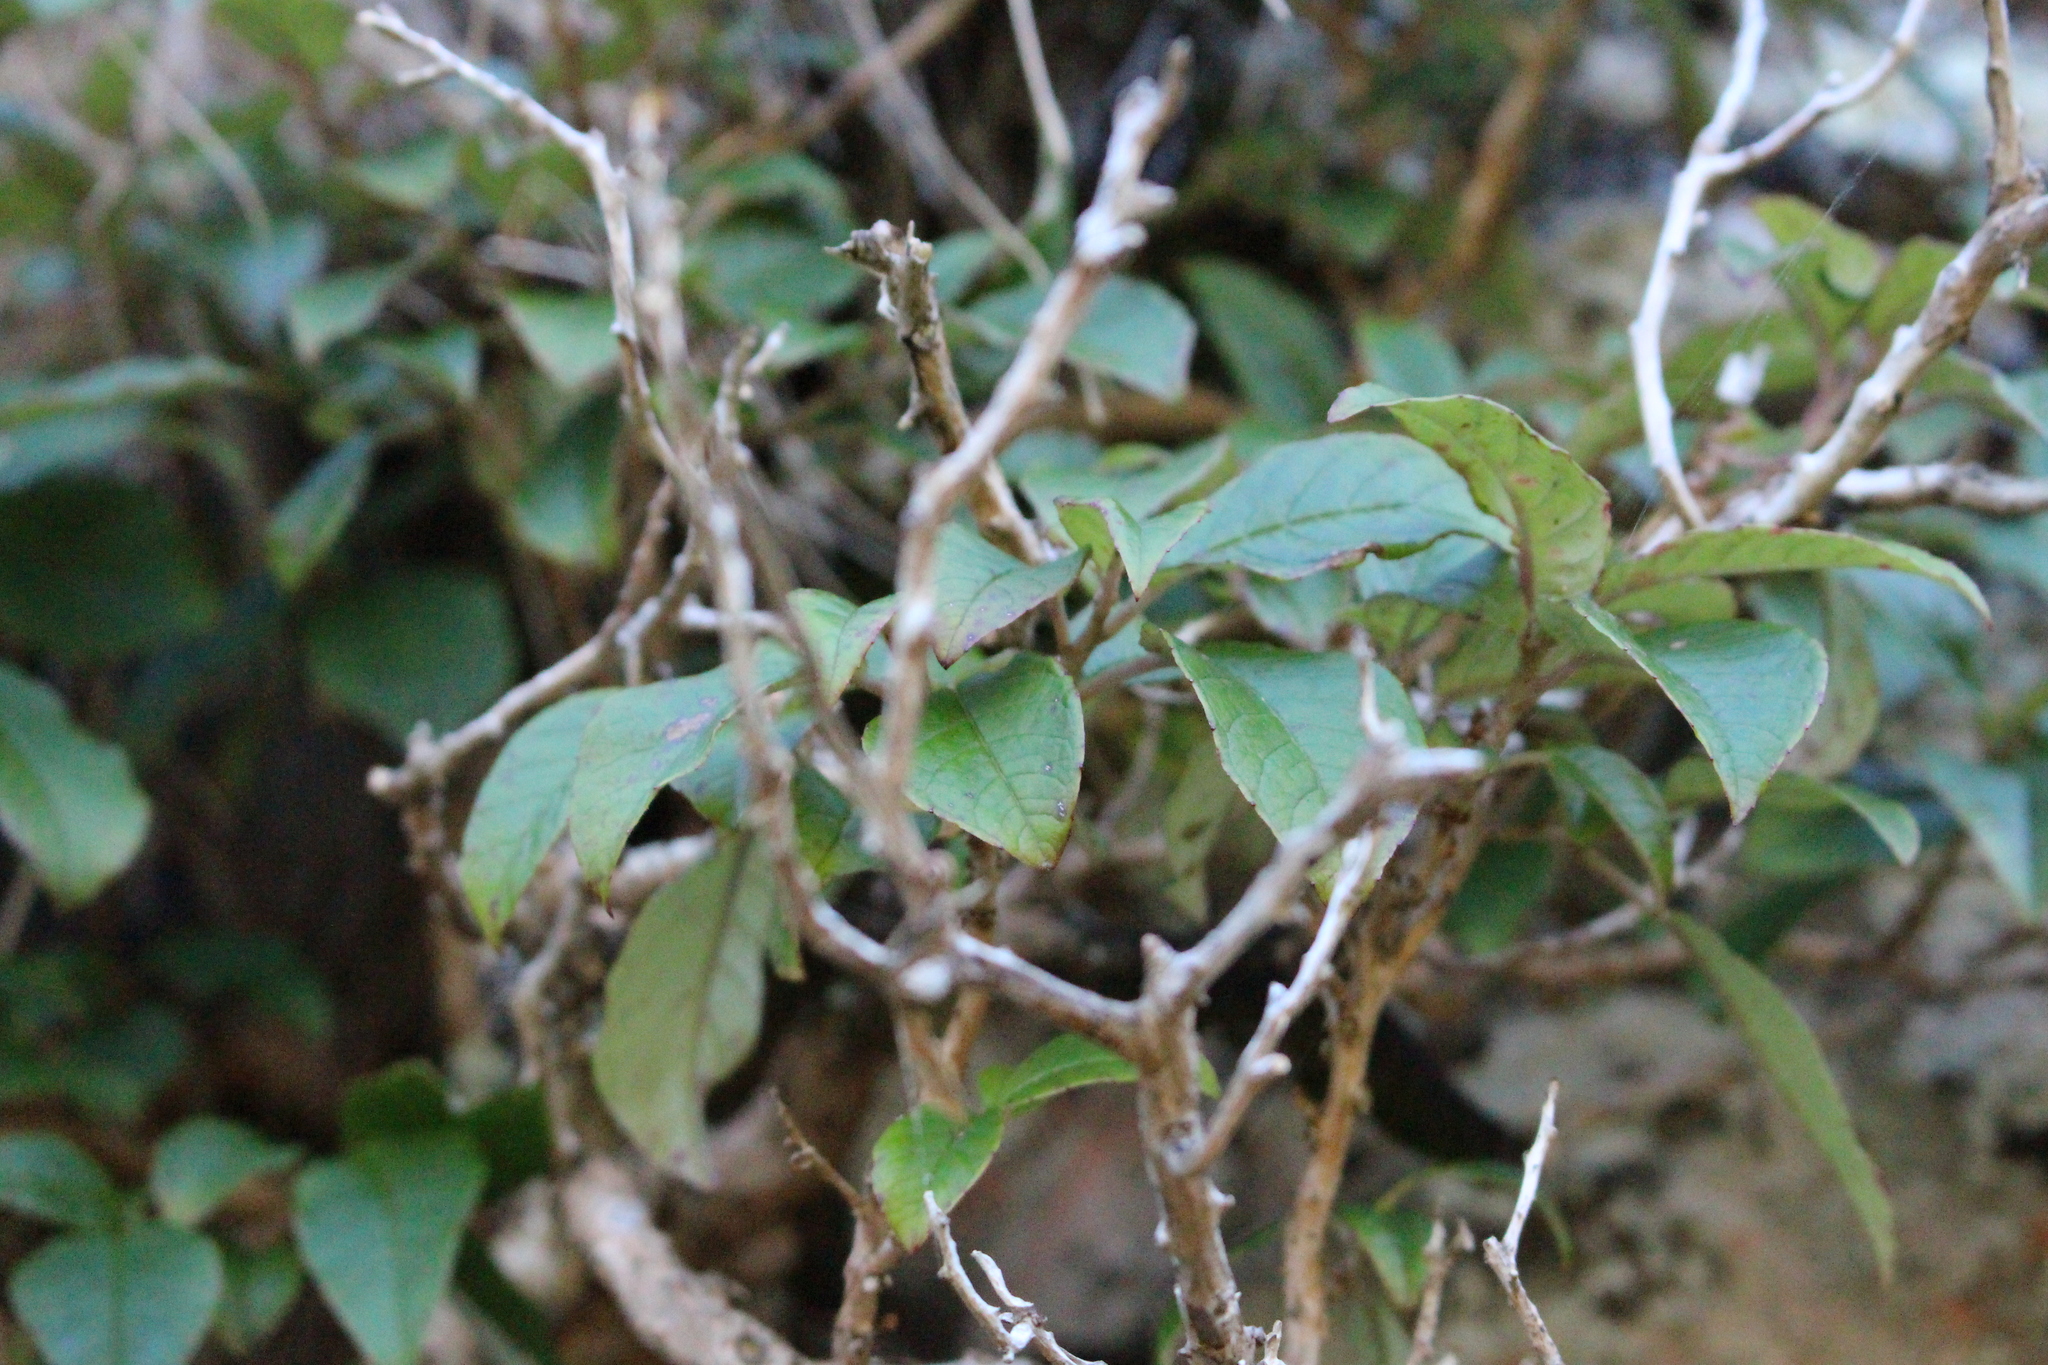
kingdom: Plantae
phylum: Tracheophyta
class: Magnoliopsida
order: Myrtales
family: Onagraceae
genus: Fuchsia
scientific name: Fuchsia excorticata
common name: Tree fuchsia
